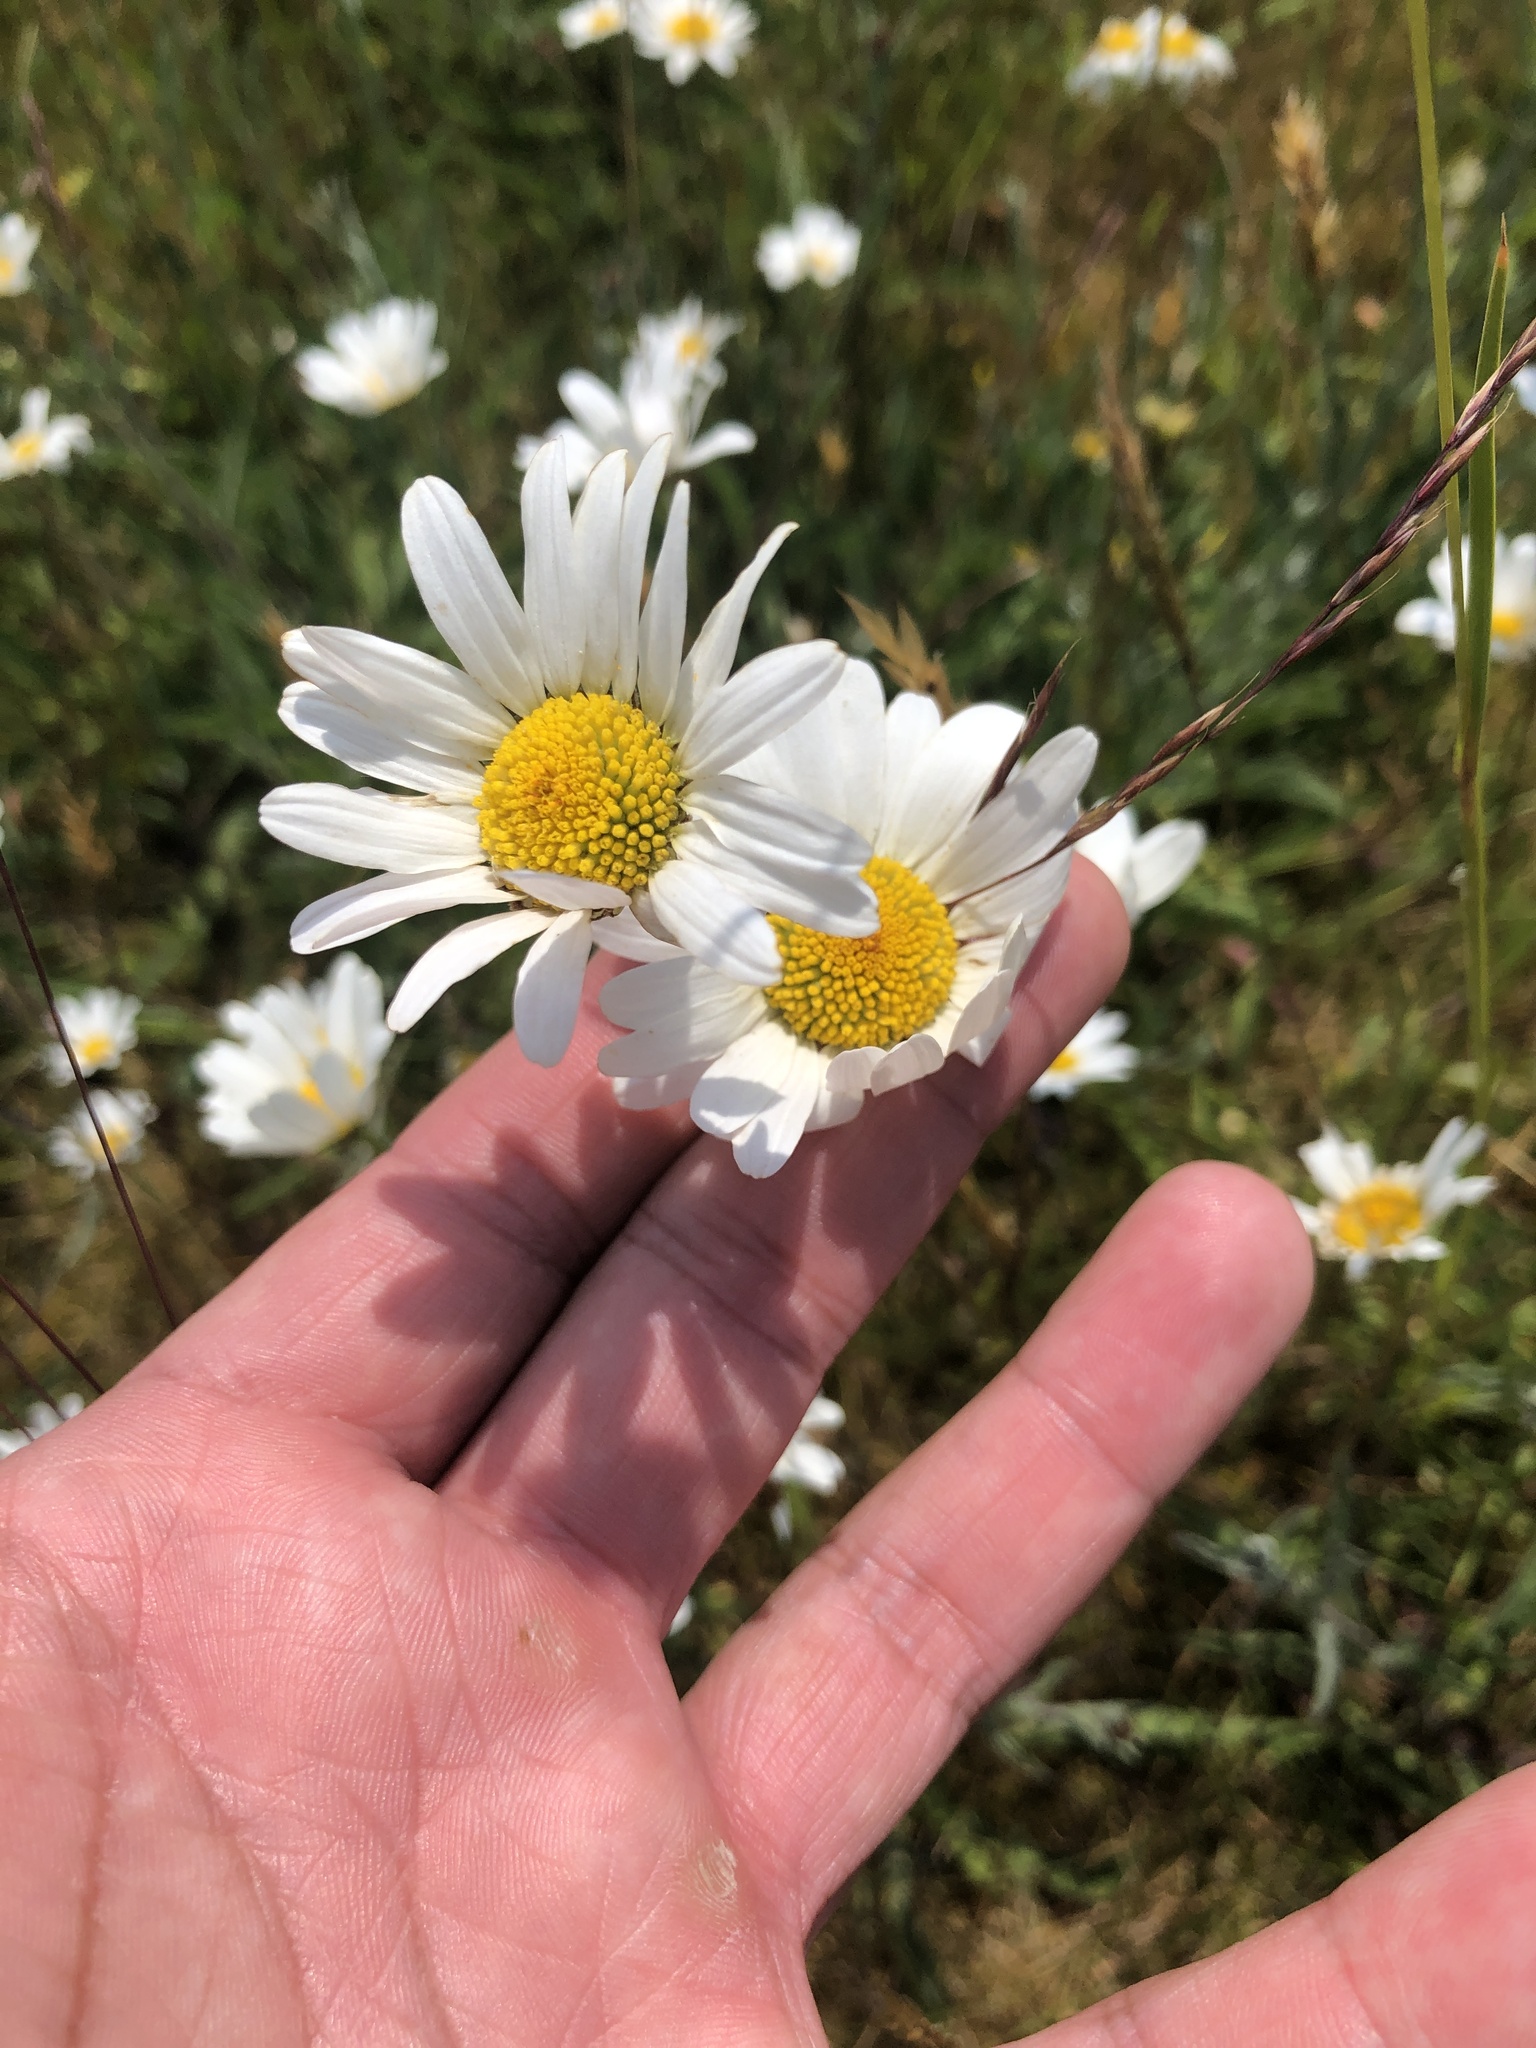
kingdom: Plantae
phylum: Tracheophyta
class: Magnoliopsida
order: Asterales
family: Asteraceae
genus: Leucanthemum
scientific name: Leucanthemum vulgare
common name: Oxeye daisy
